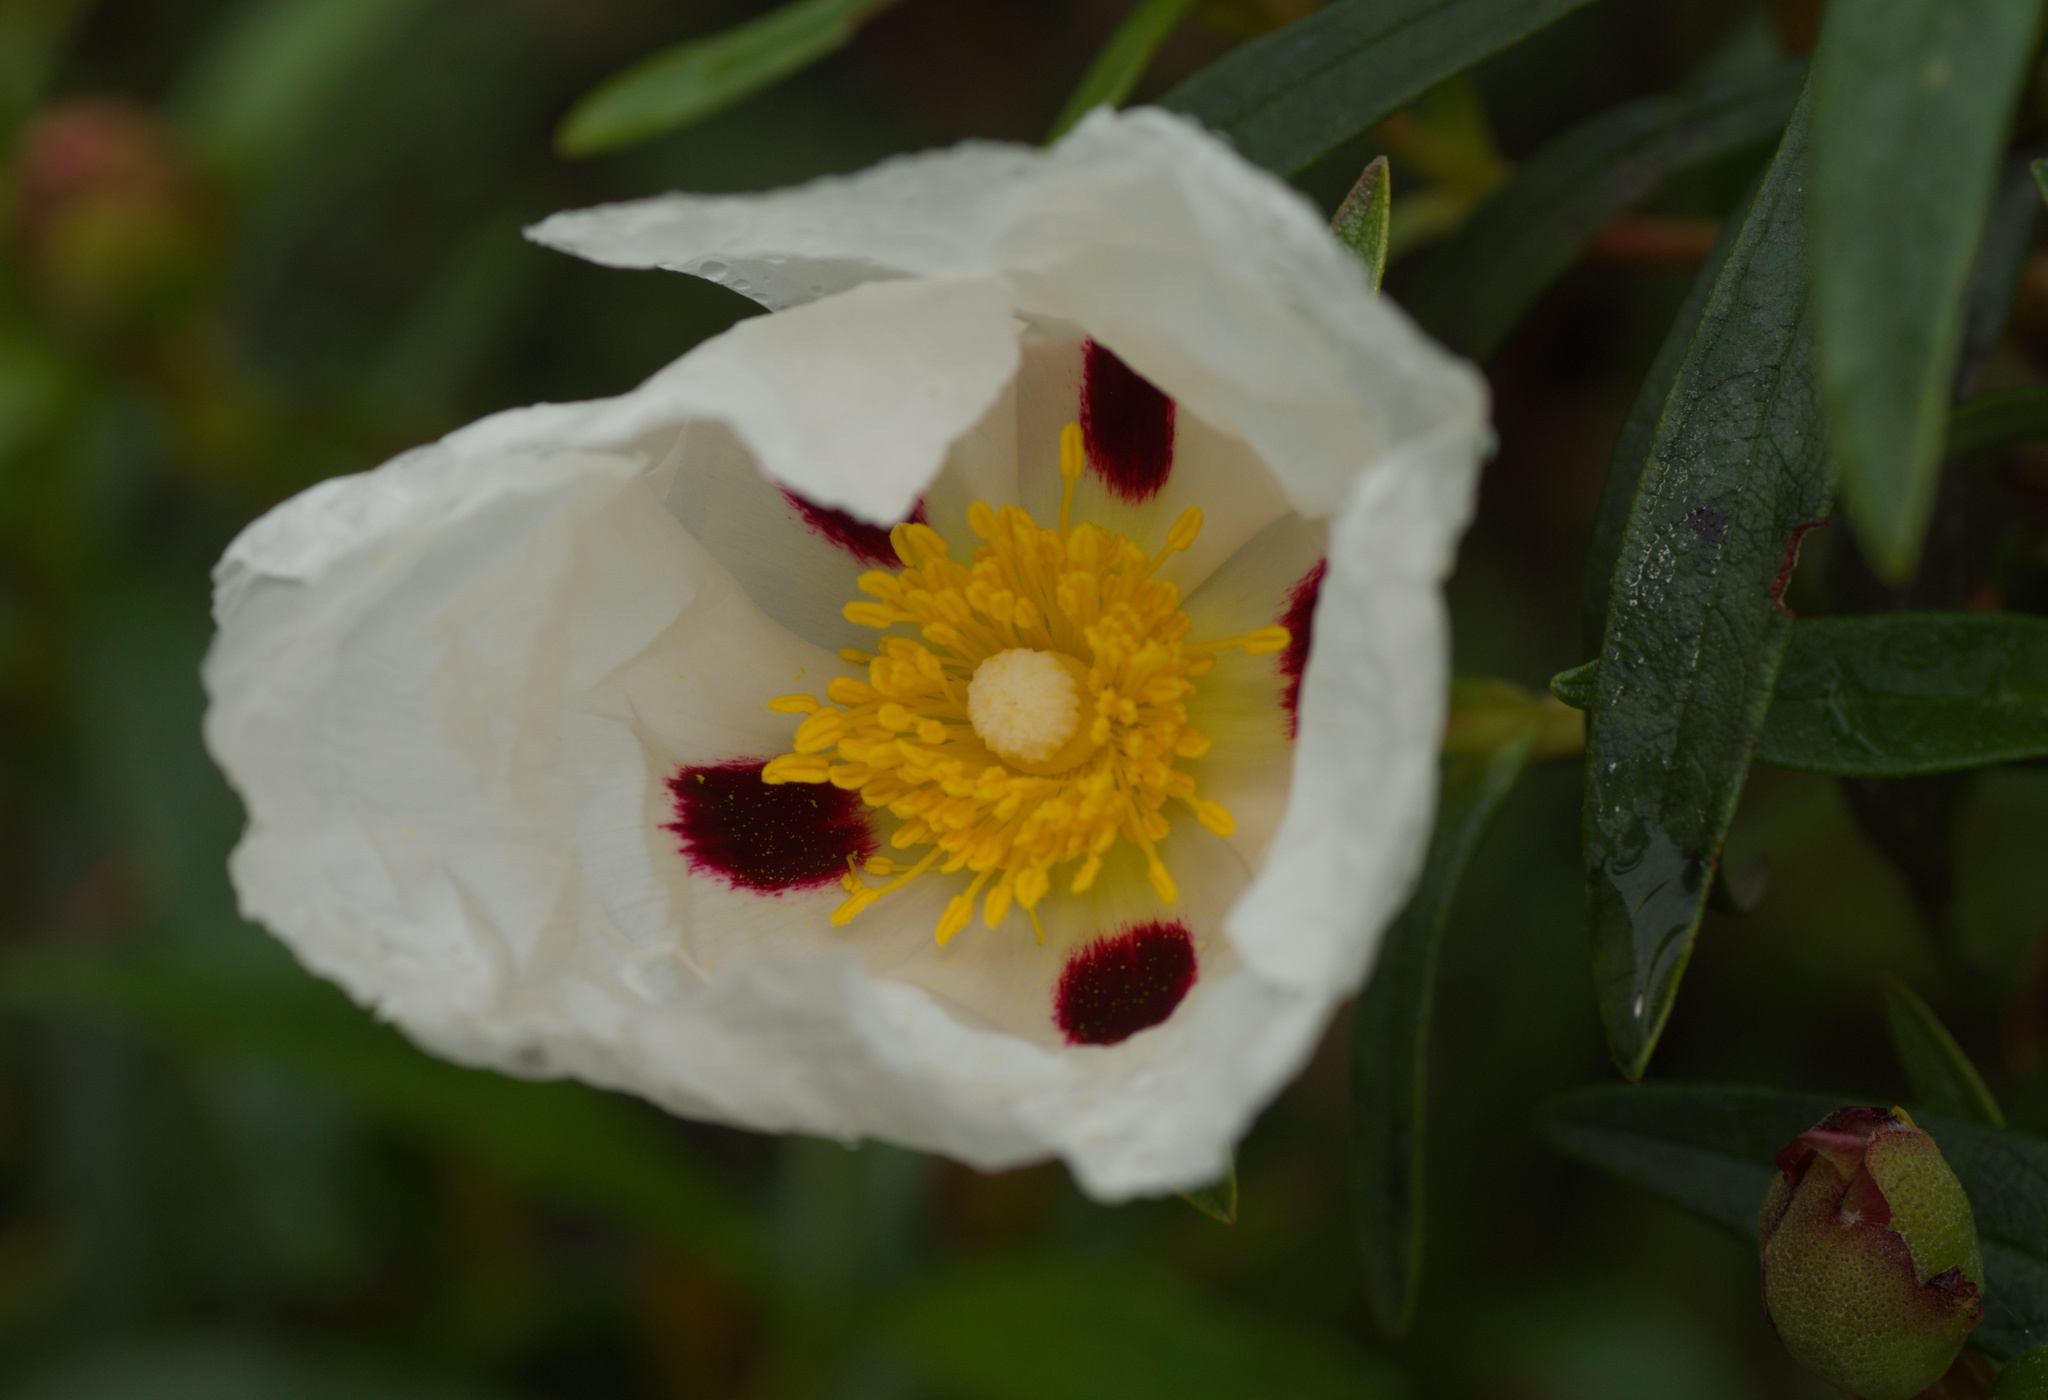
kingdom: Plantae
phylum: Tracheophyta
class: Magnoliopsida
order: Malvales
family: Cistaceae
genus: Cistus
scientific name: Cistus ladanifer
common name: Common gum cistus
